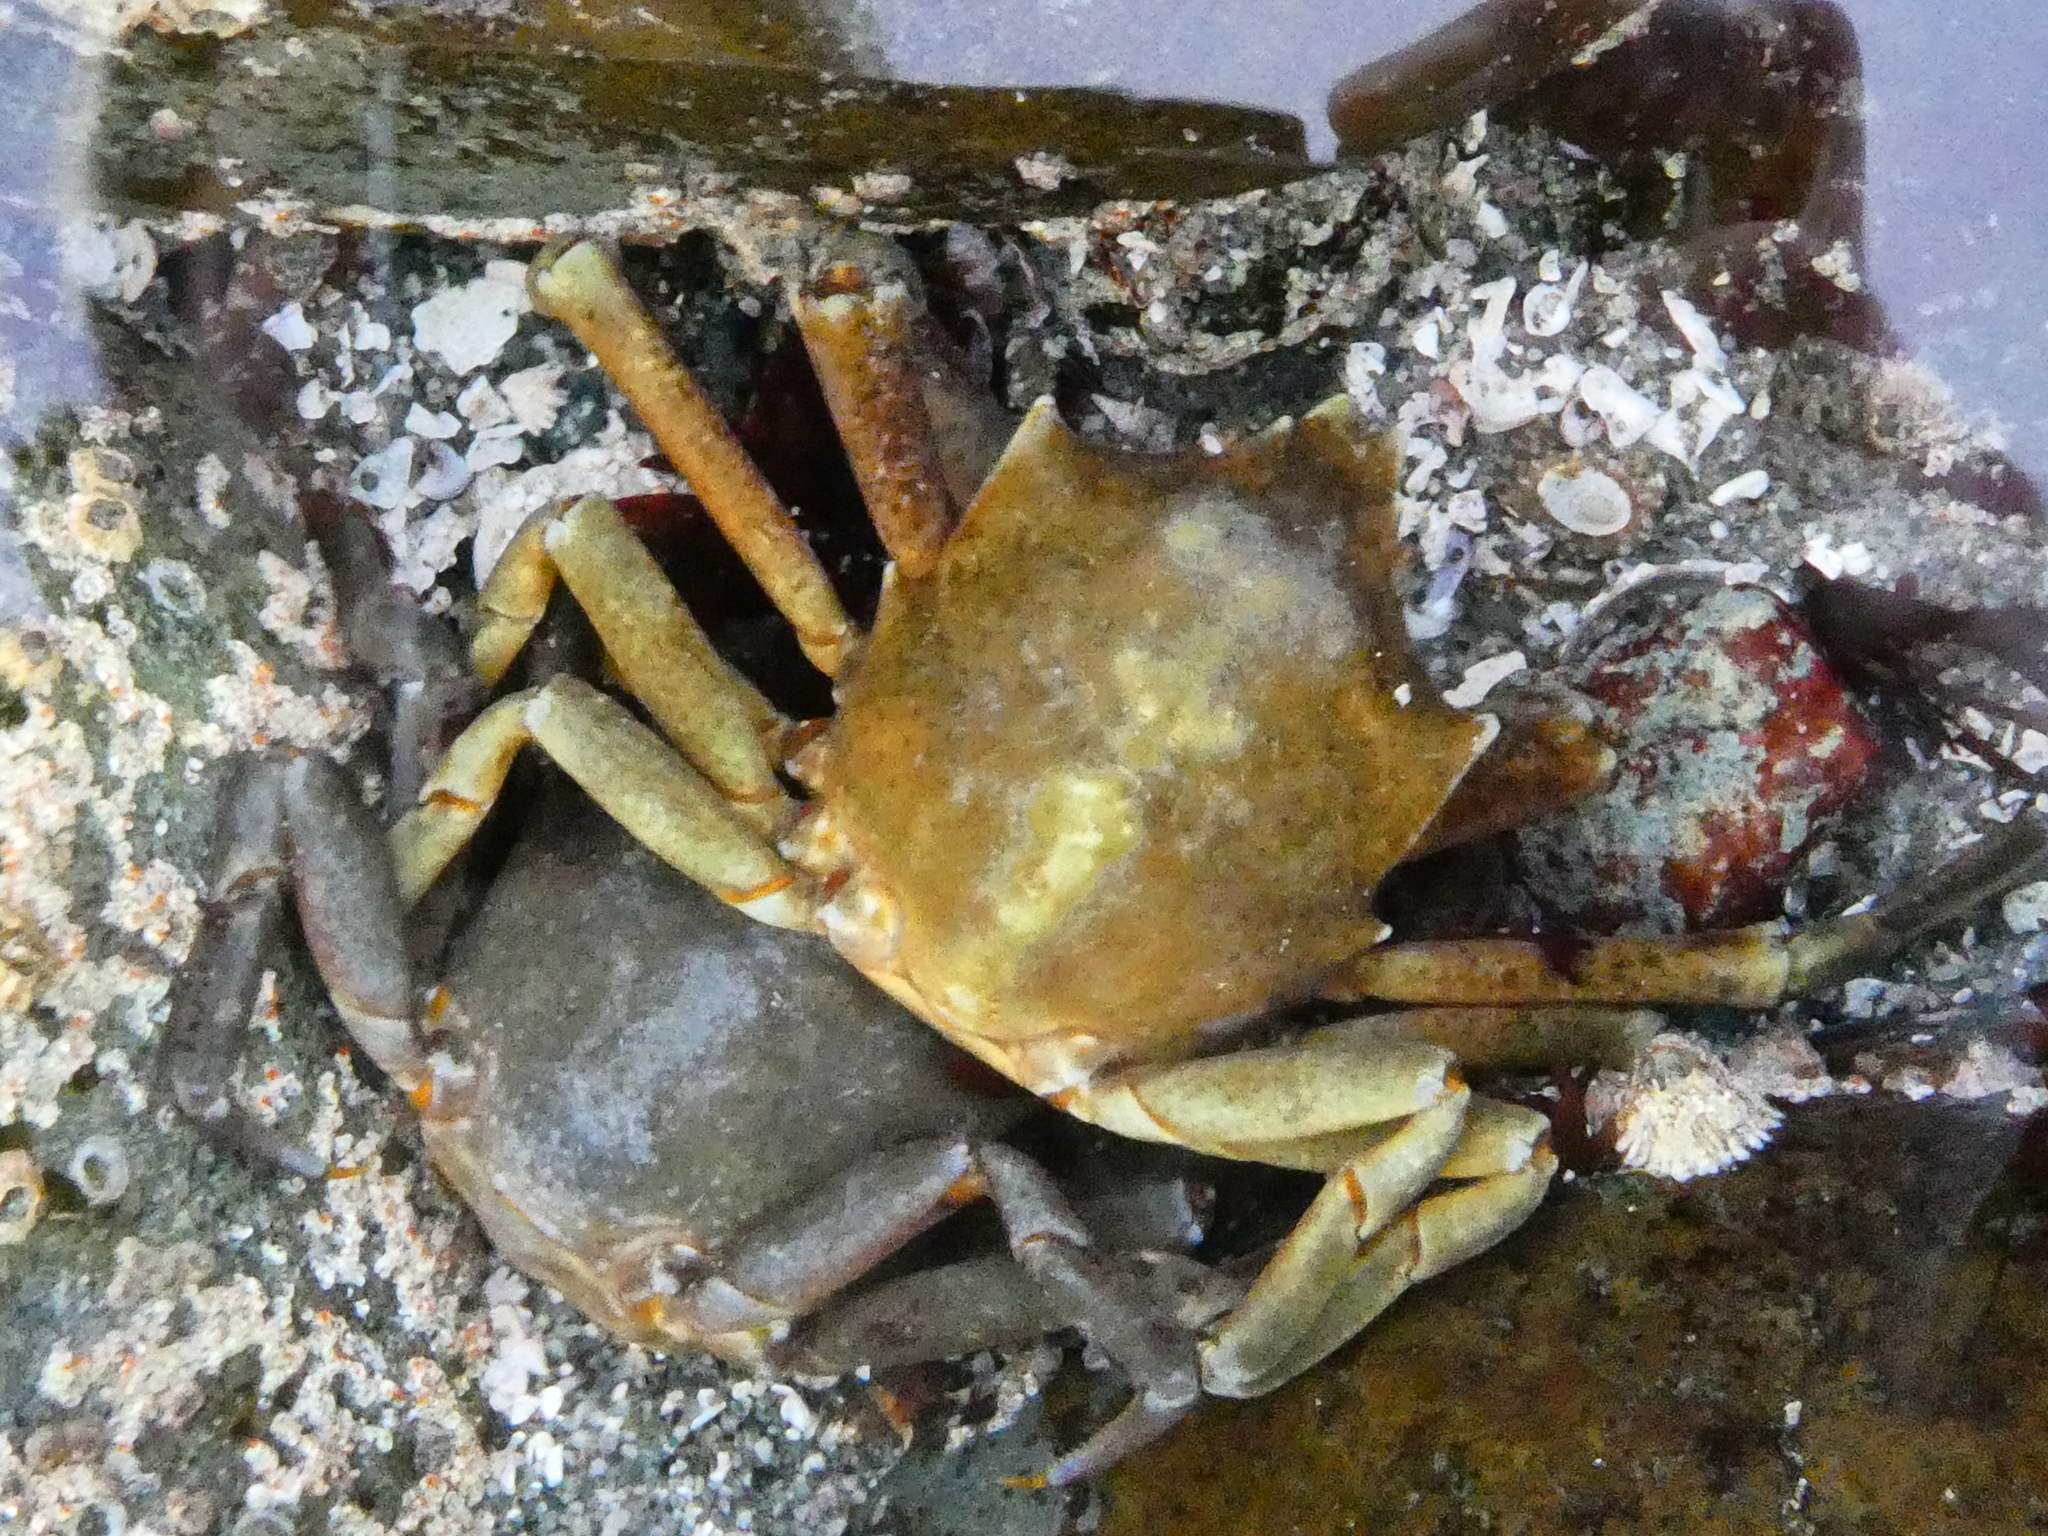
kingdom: Animalia
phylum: Arthropoda
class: Malacostraca
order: Decapoda
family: Epialtidae
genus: Pugettia
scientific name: Pugettia producta
